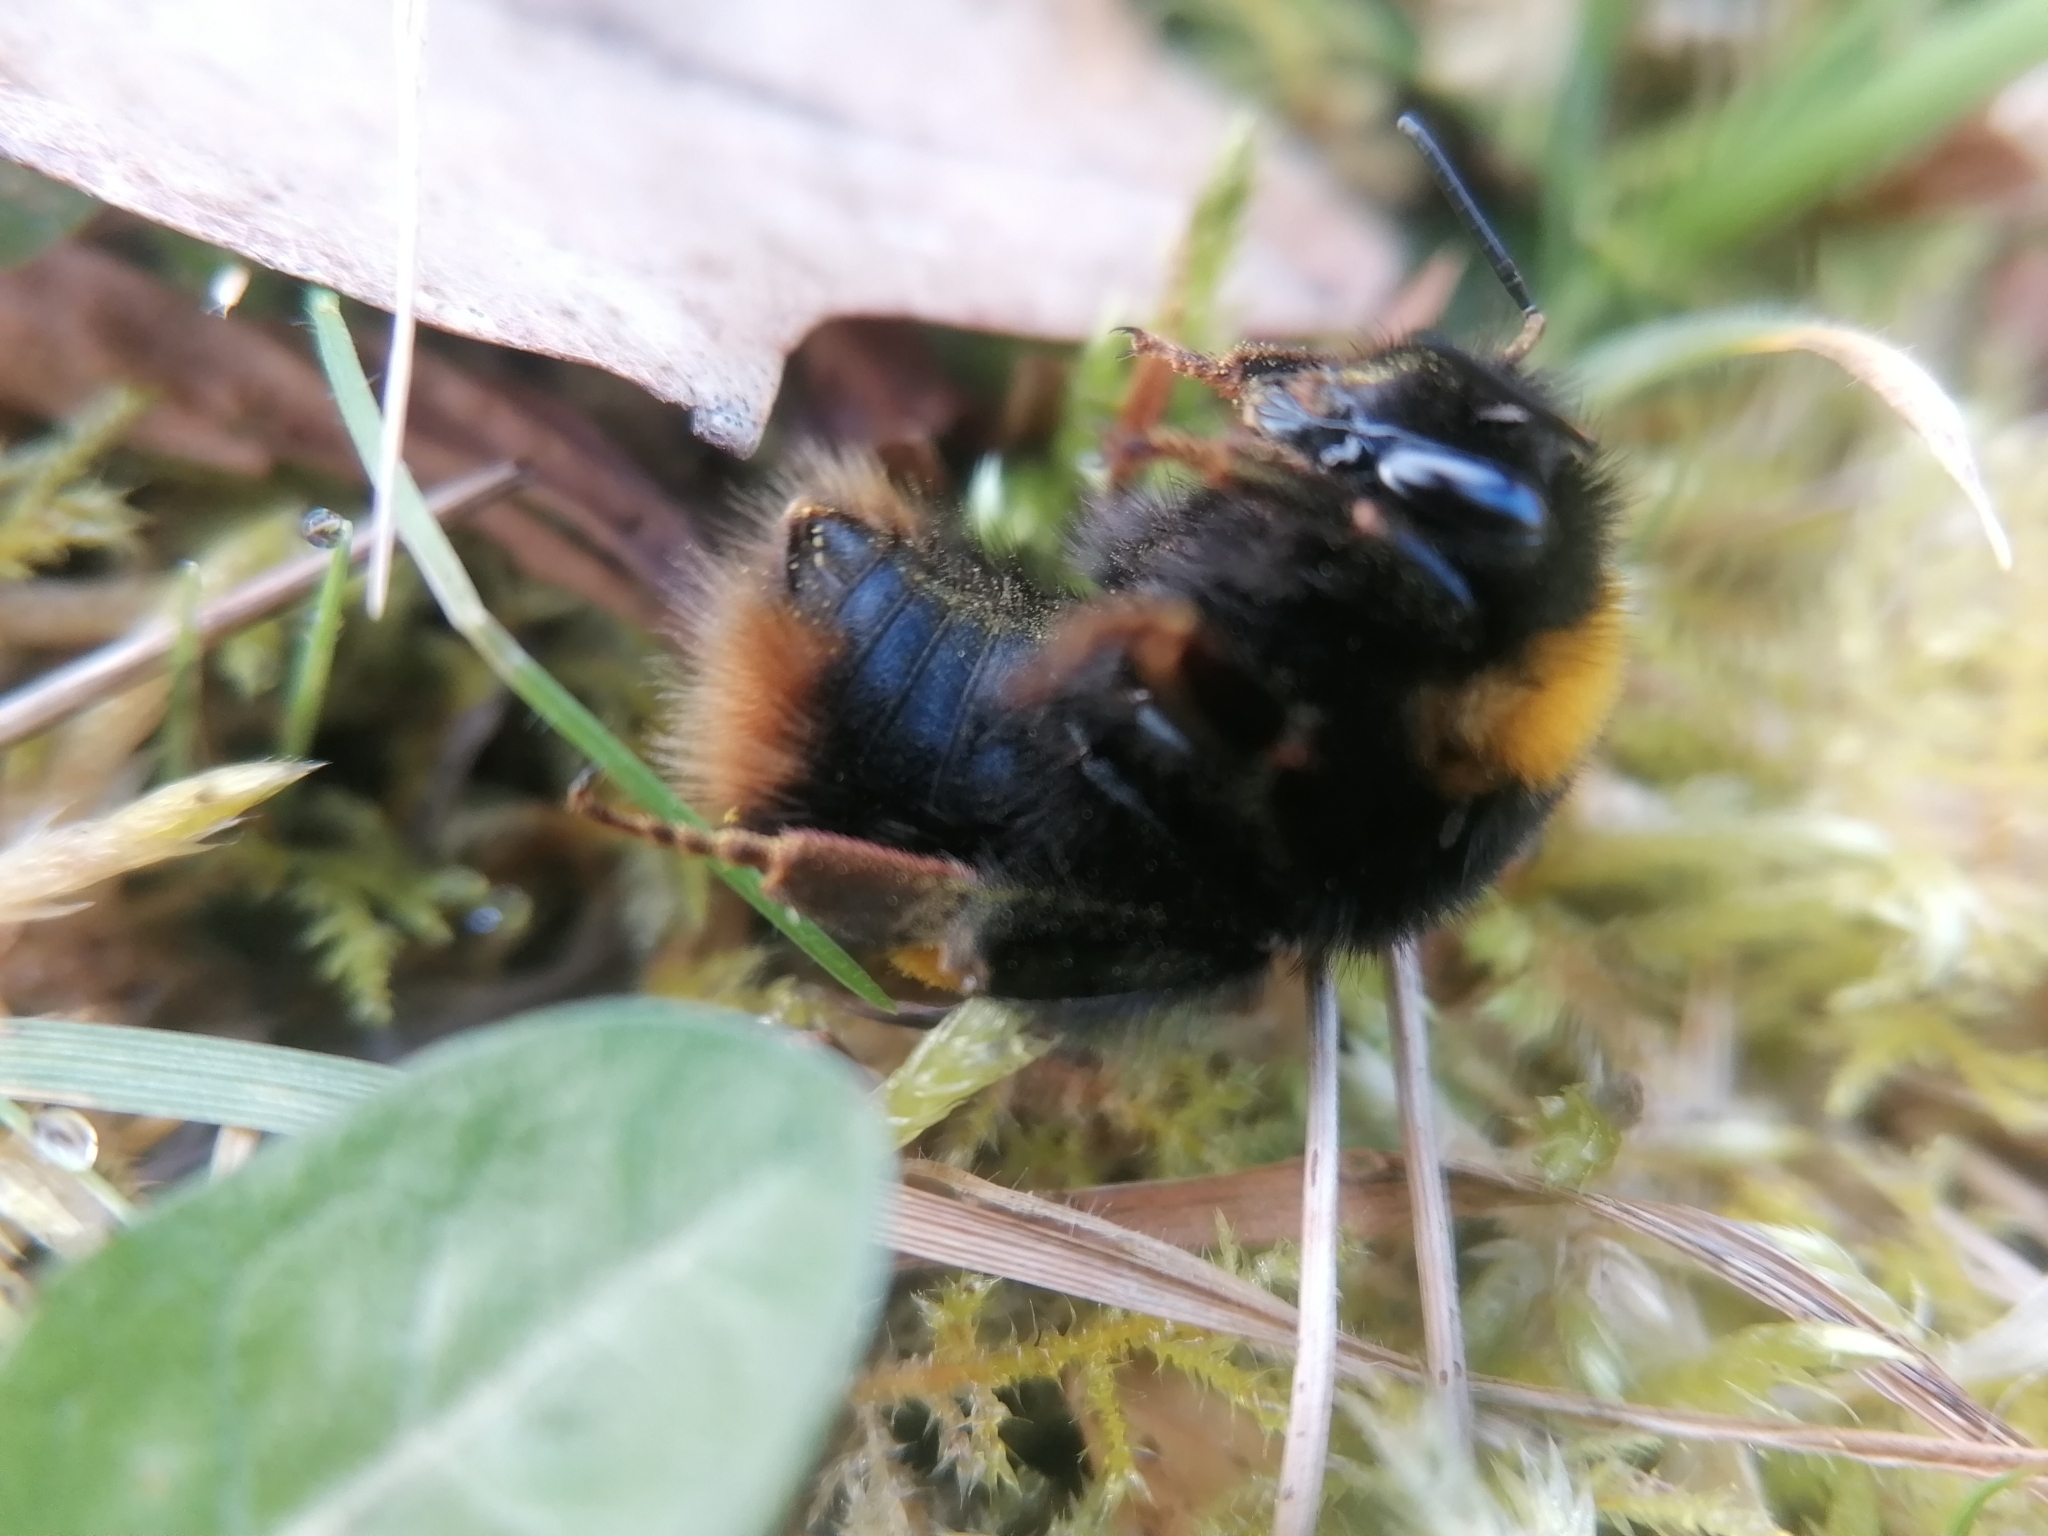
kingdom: Animalia
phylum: Arthropoda
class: Insecta
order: Hymenoptera
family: Apidae
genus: Bombus
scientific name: Bombus pratorum
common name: Early humble-bee
